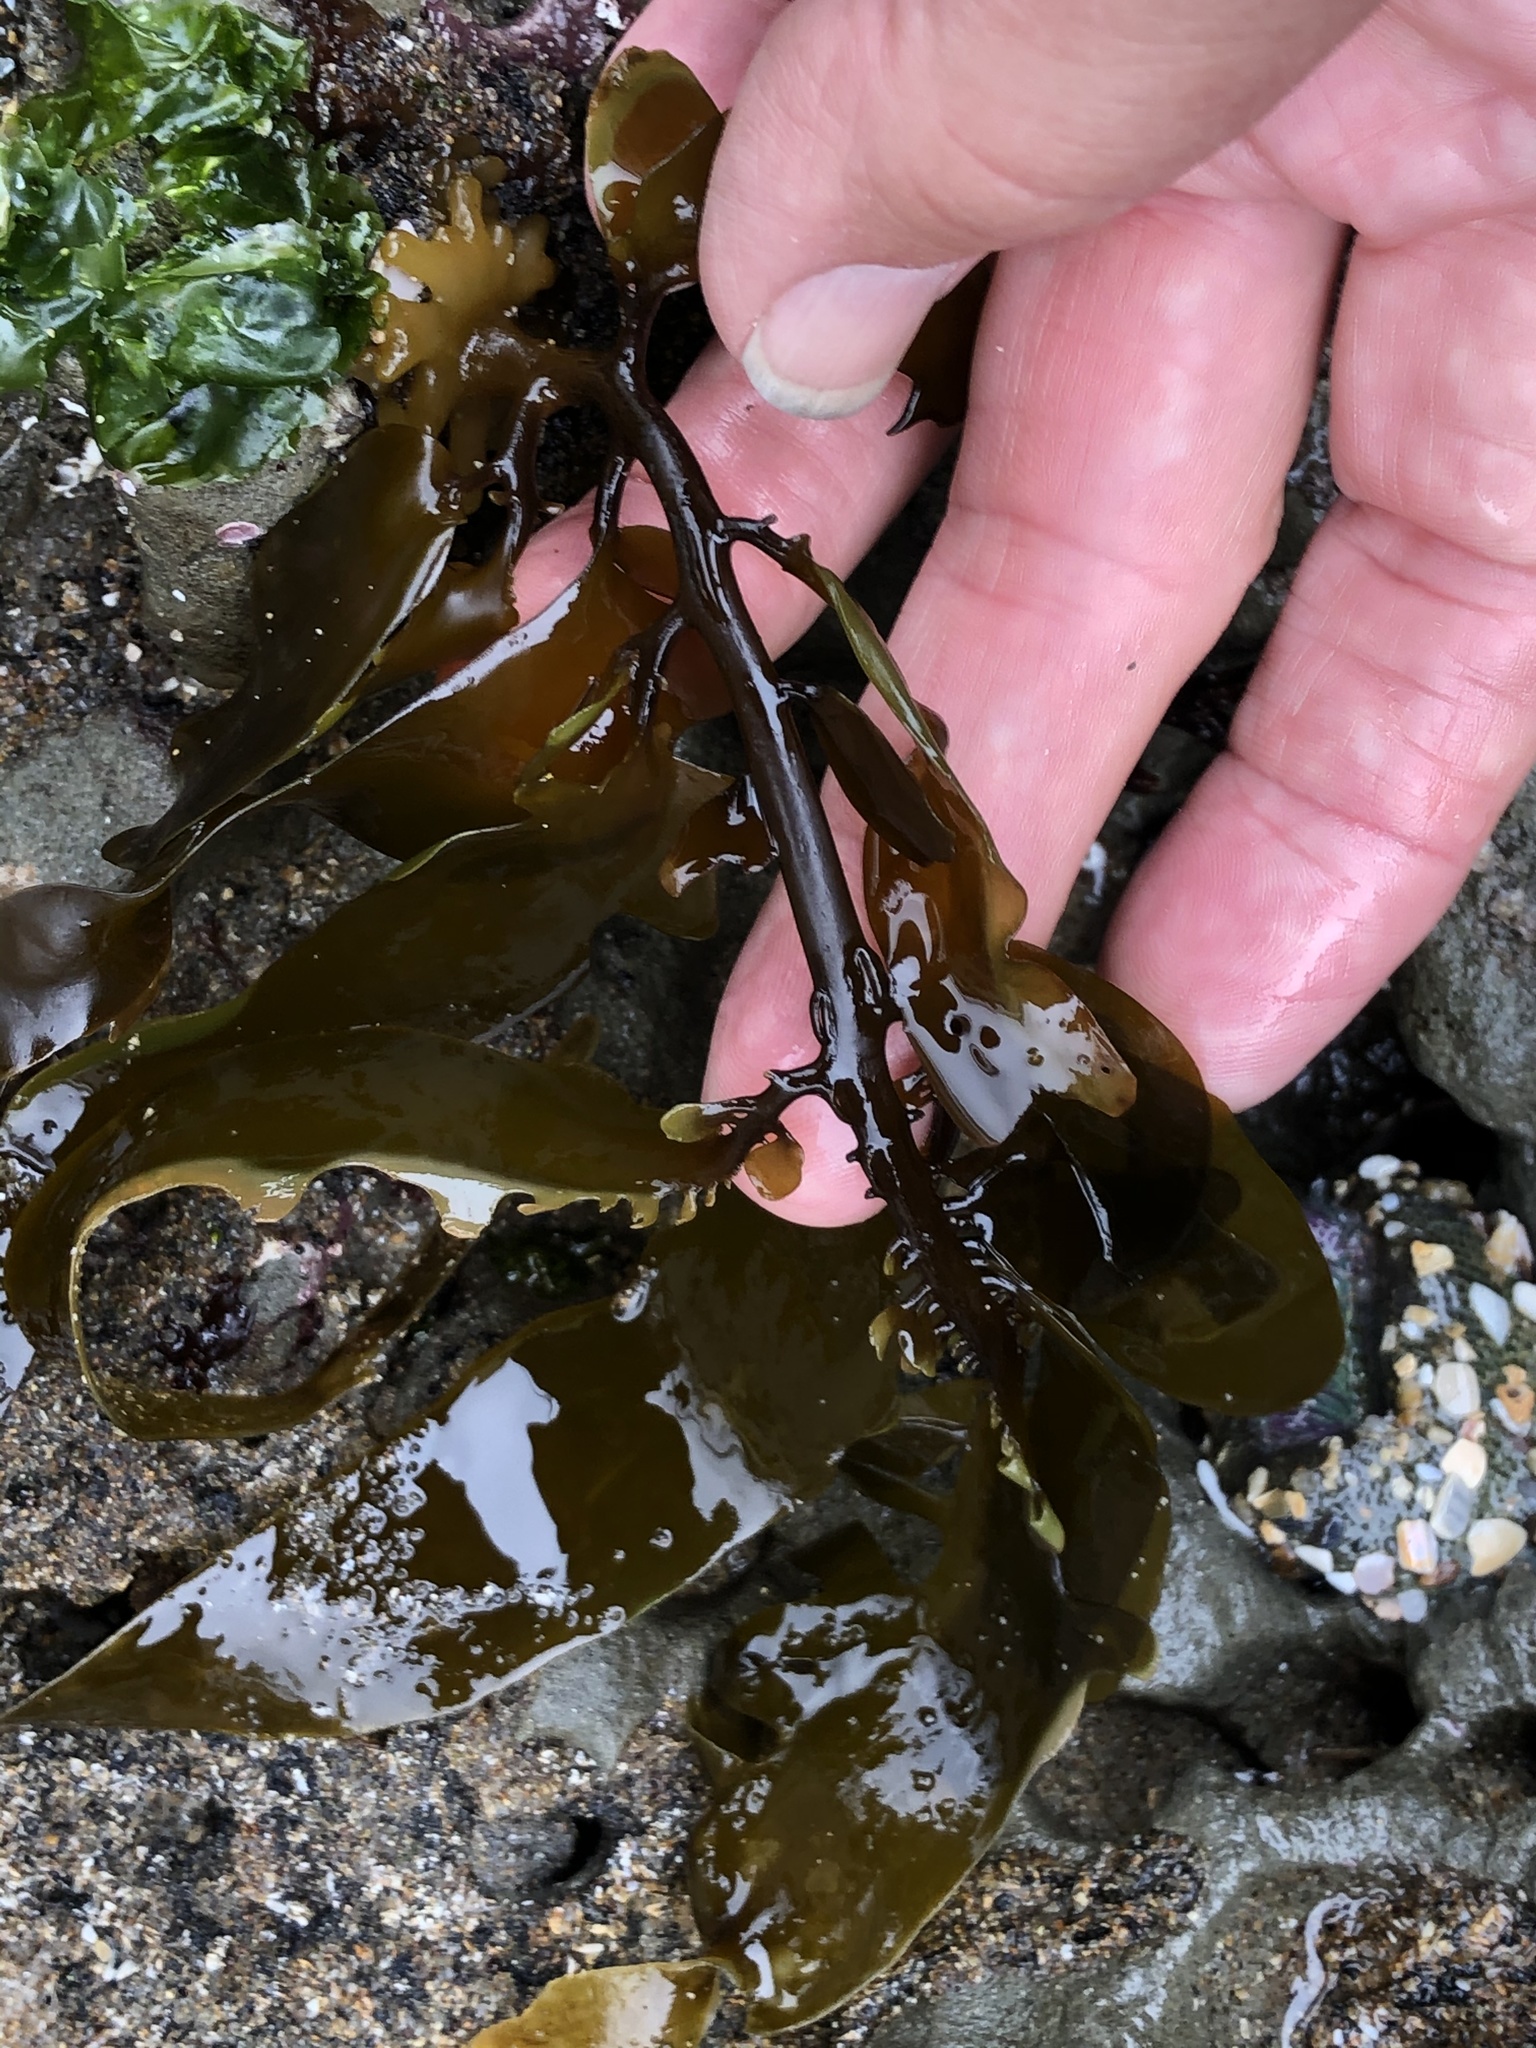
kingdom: Chromista
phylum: Ochrophyta
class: Phaeophyceae
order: Laminariales
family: Lessoniaceae
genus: Egregia
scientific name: Egregia menziesii
